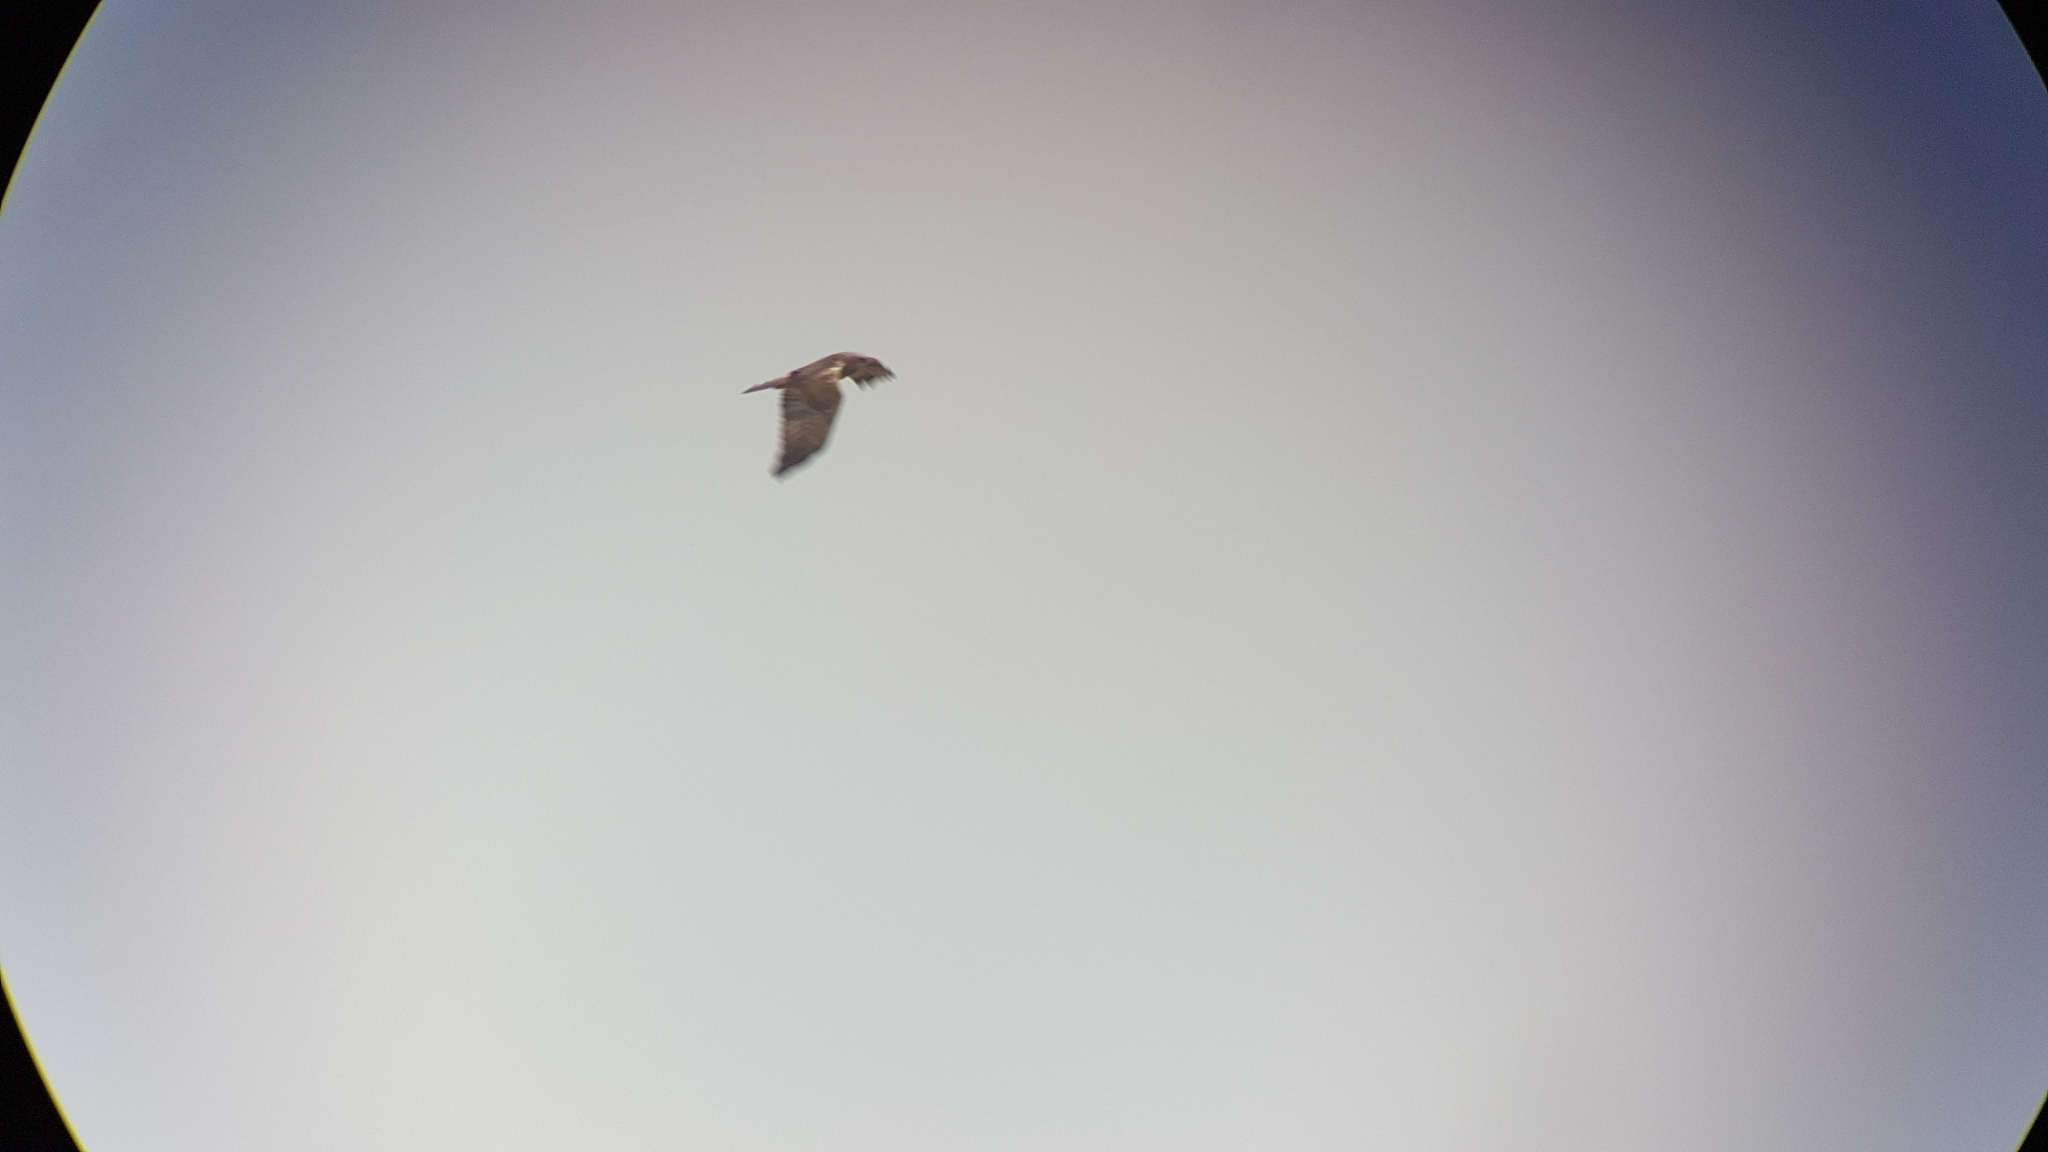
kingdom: Animalia
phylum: Chordata
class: Aves
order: Accipitriformes
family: Accipitridae
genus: Circus
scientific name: Circus aeruginosus
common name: Western marsh harrier
